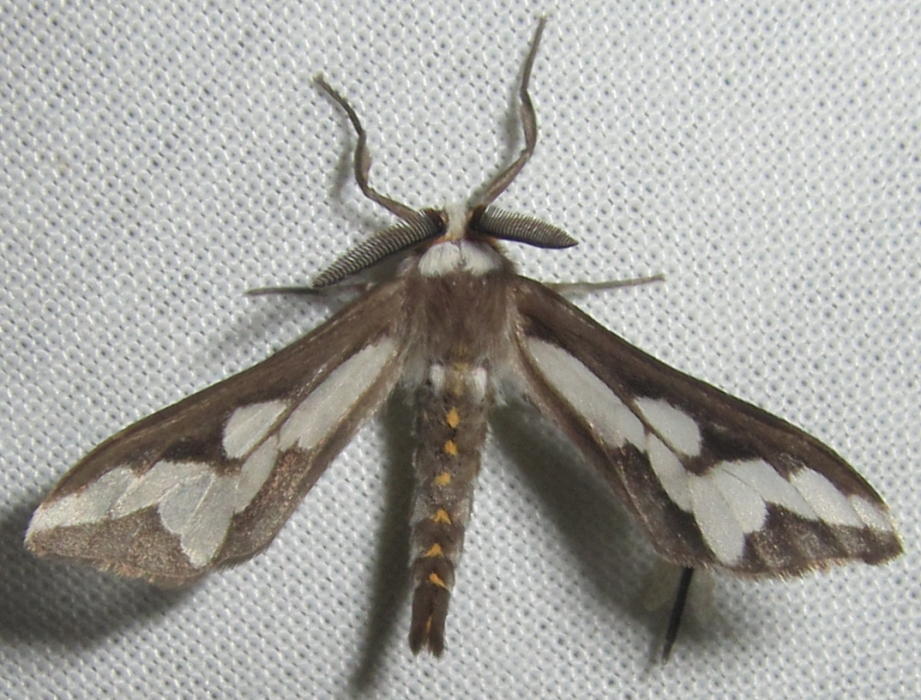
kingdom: Animalia
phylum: Arthropoda
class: Insecta
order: Lepidoptera
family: Erebidae
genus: Thyretes
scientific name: Thyretes caffra
